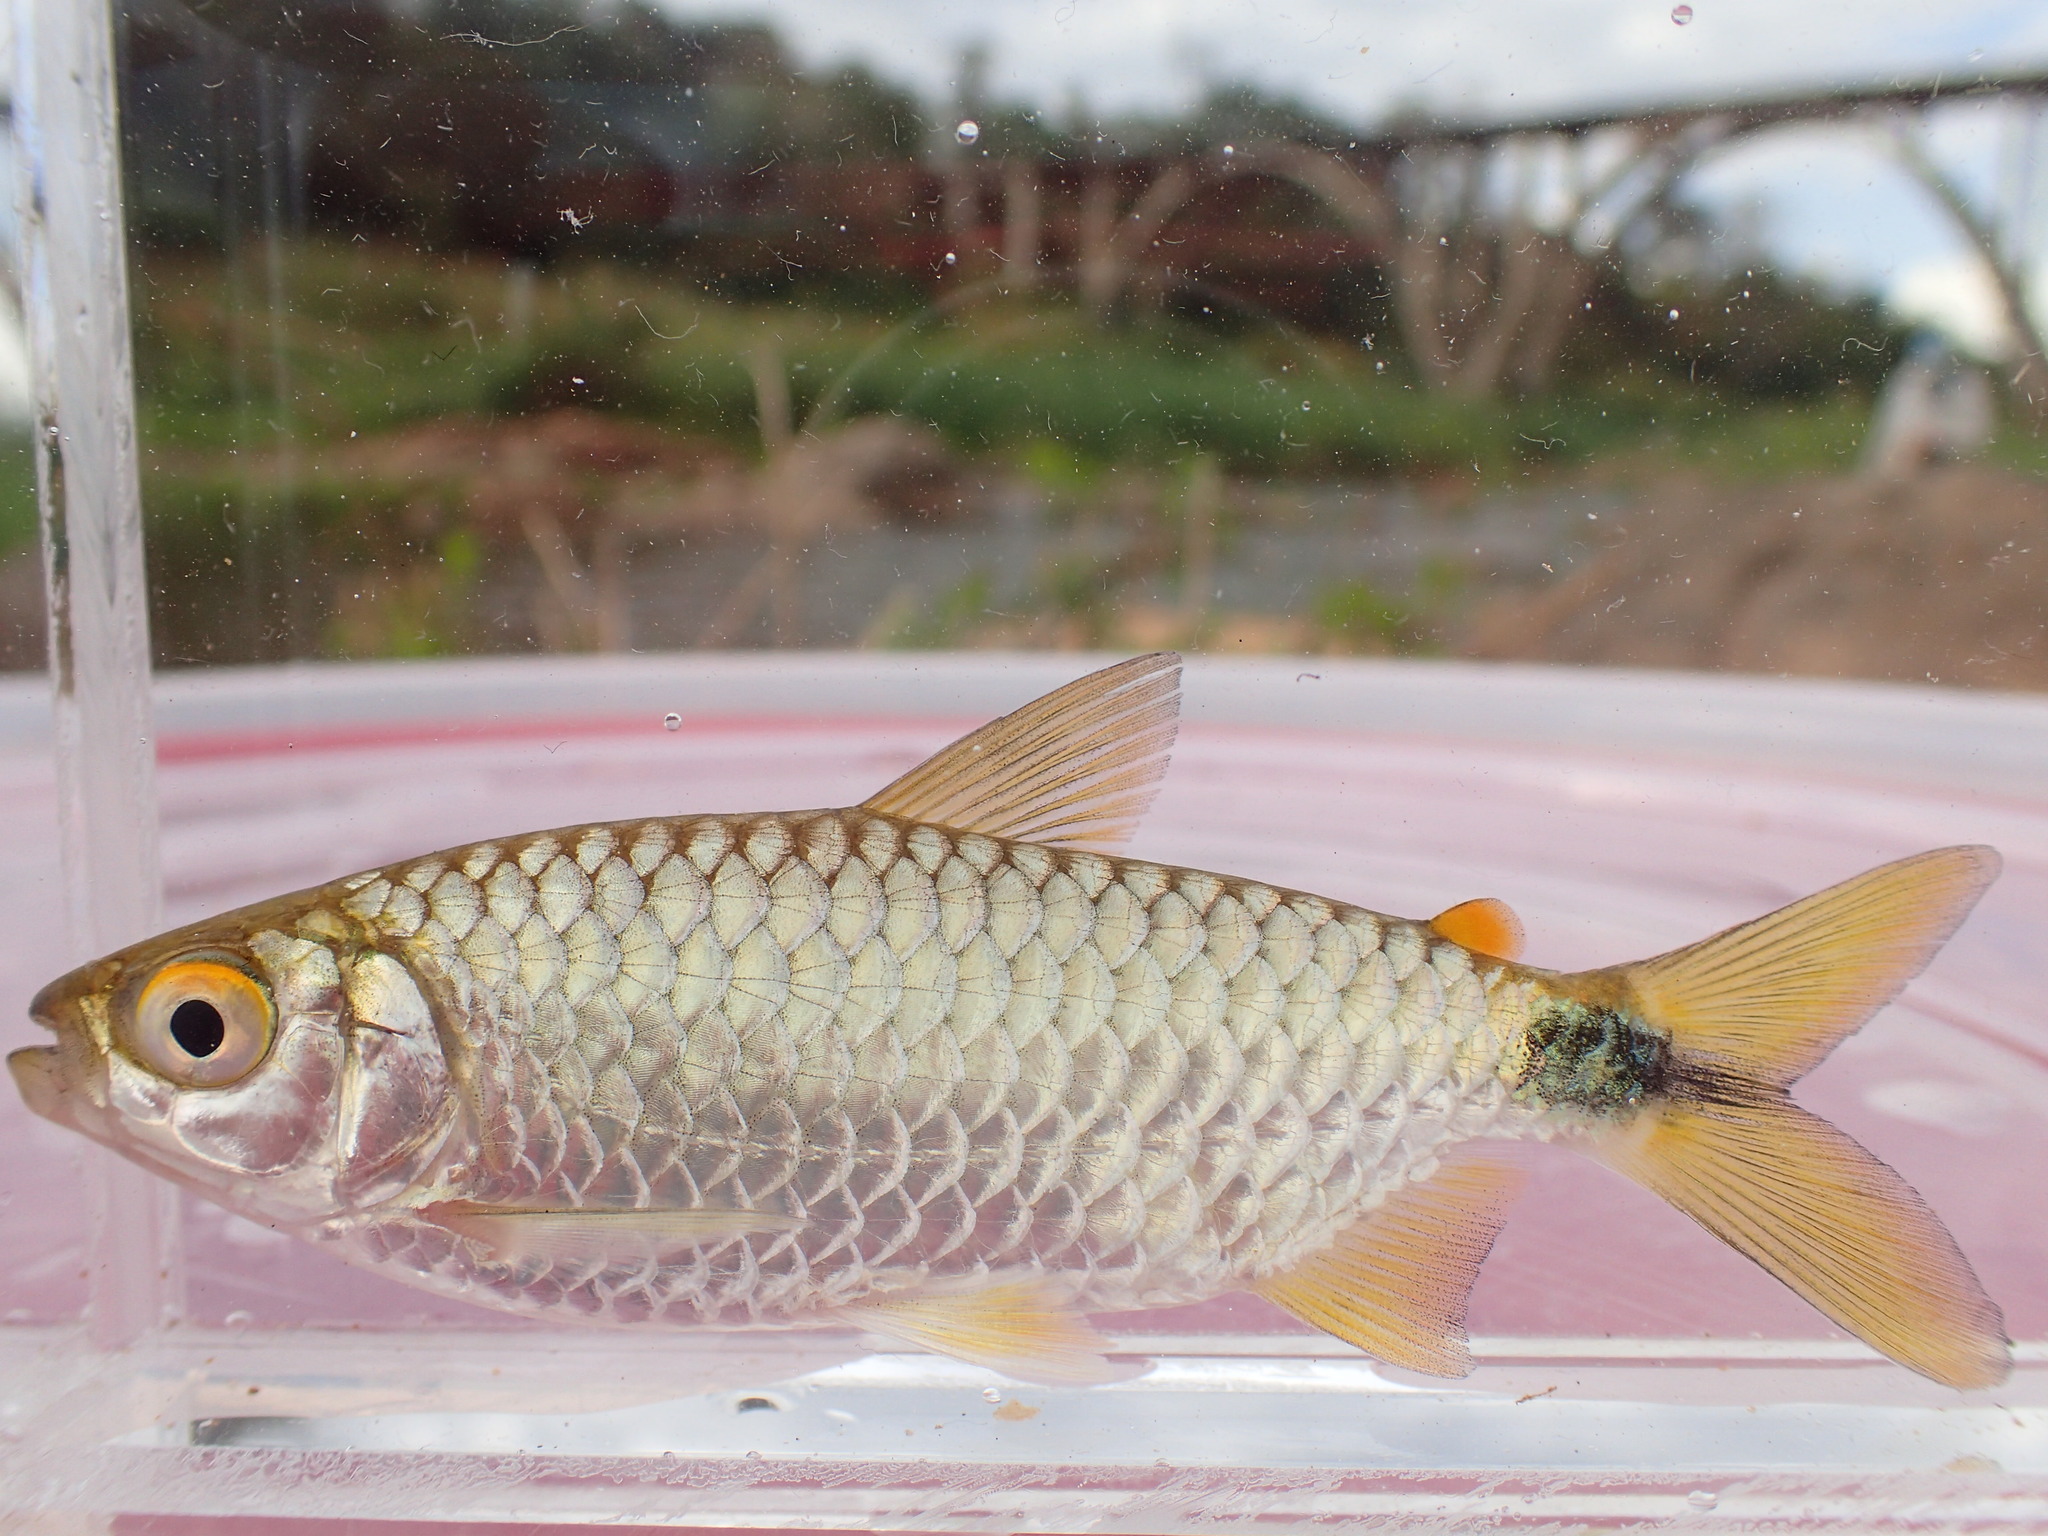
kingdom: Animalia
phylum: Chordata
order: Characiformes
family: Alestidae
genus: Brycinus
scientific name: Brycinus imberi
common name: Imberi
